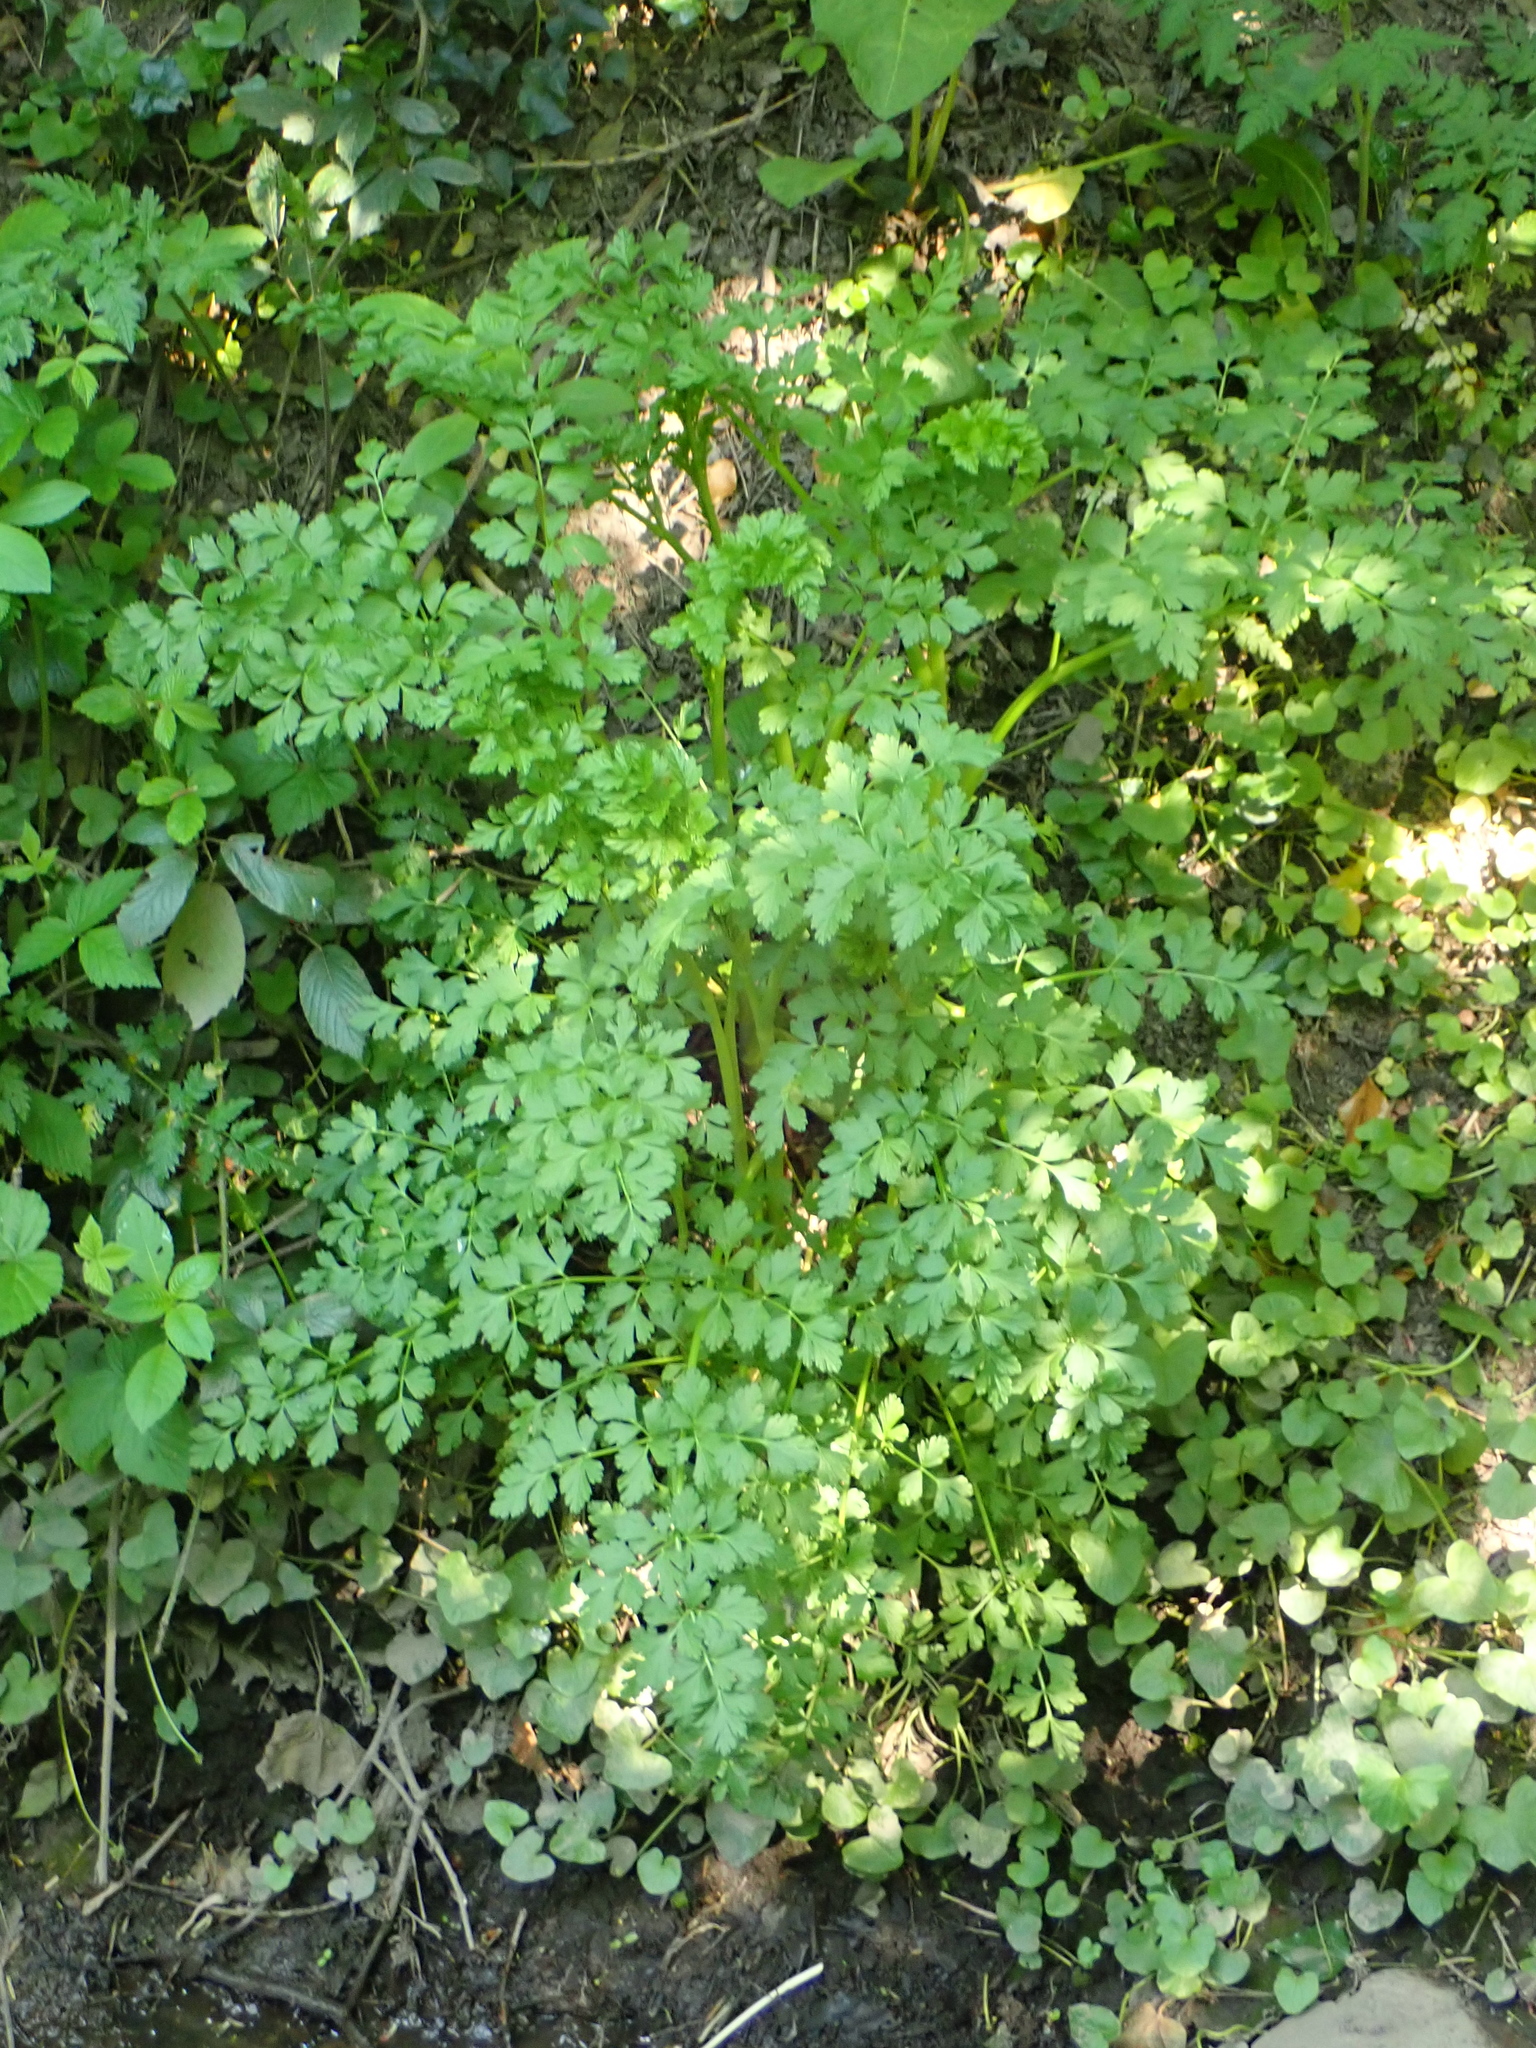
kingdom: Plantae
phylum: Tracheophyta
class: Magnoliopsida
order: Apiales
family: Apiaceae
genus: Oenanthe
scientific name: Oenanthe crocata
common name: Hemlock water-dropwort
